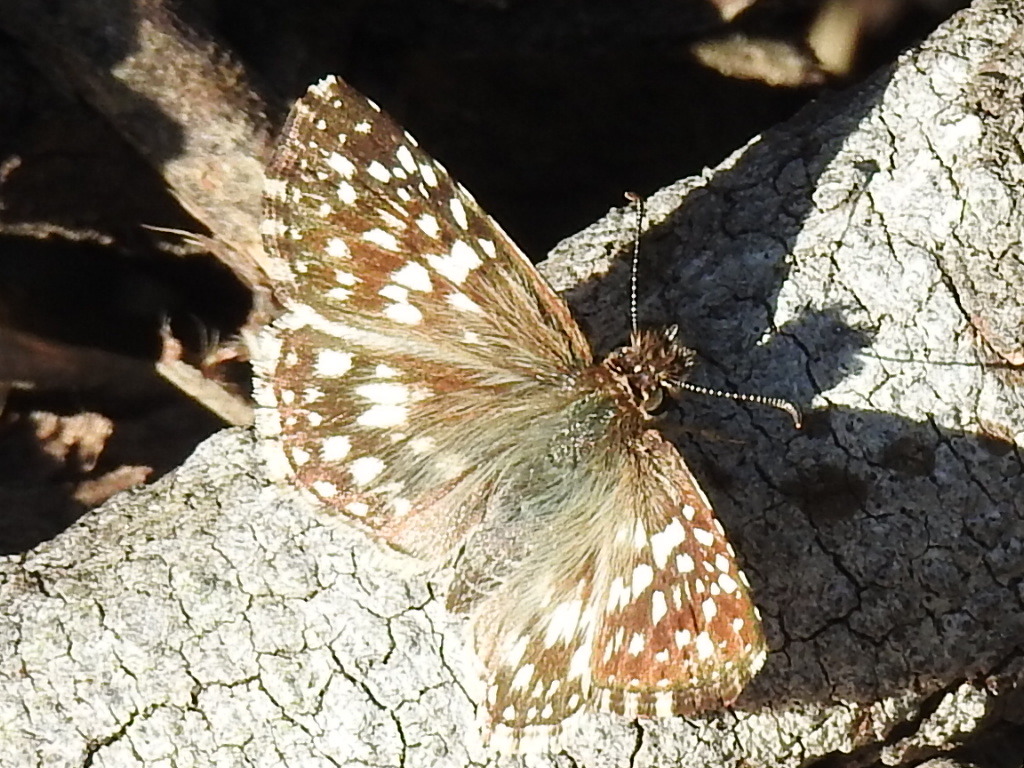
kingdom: Animalia
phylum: Arthropoda
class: Insecta
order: Lepidoptera
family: Hesperiidae
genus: Pyrgus
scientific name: Pyrgus oileus
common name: Tropical checkered-skipper
